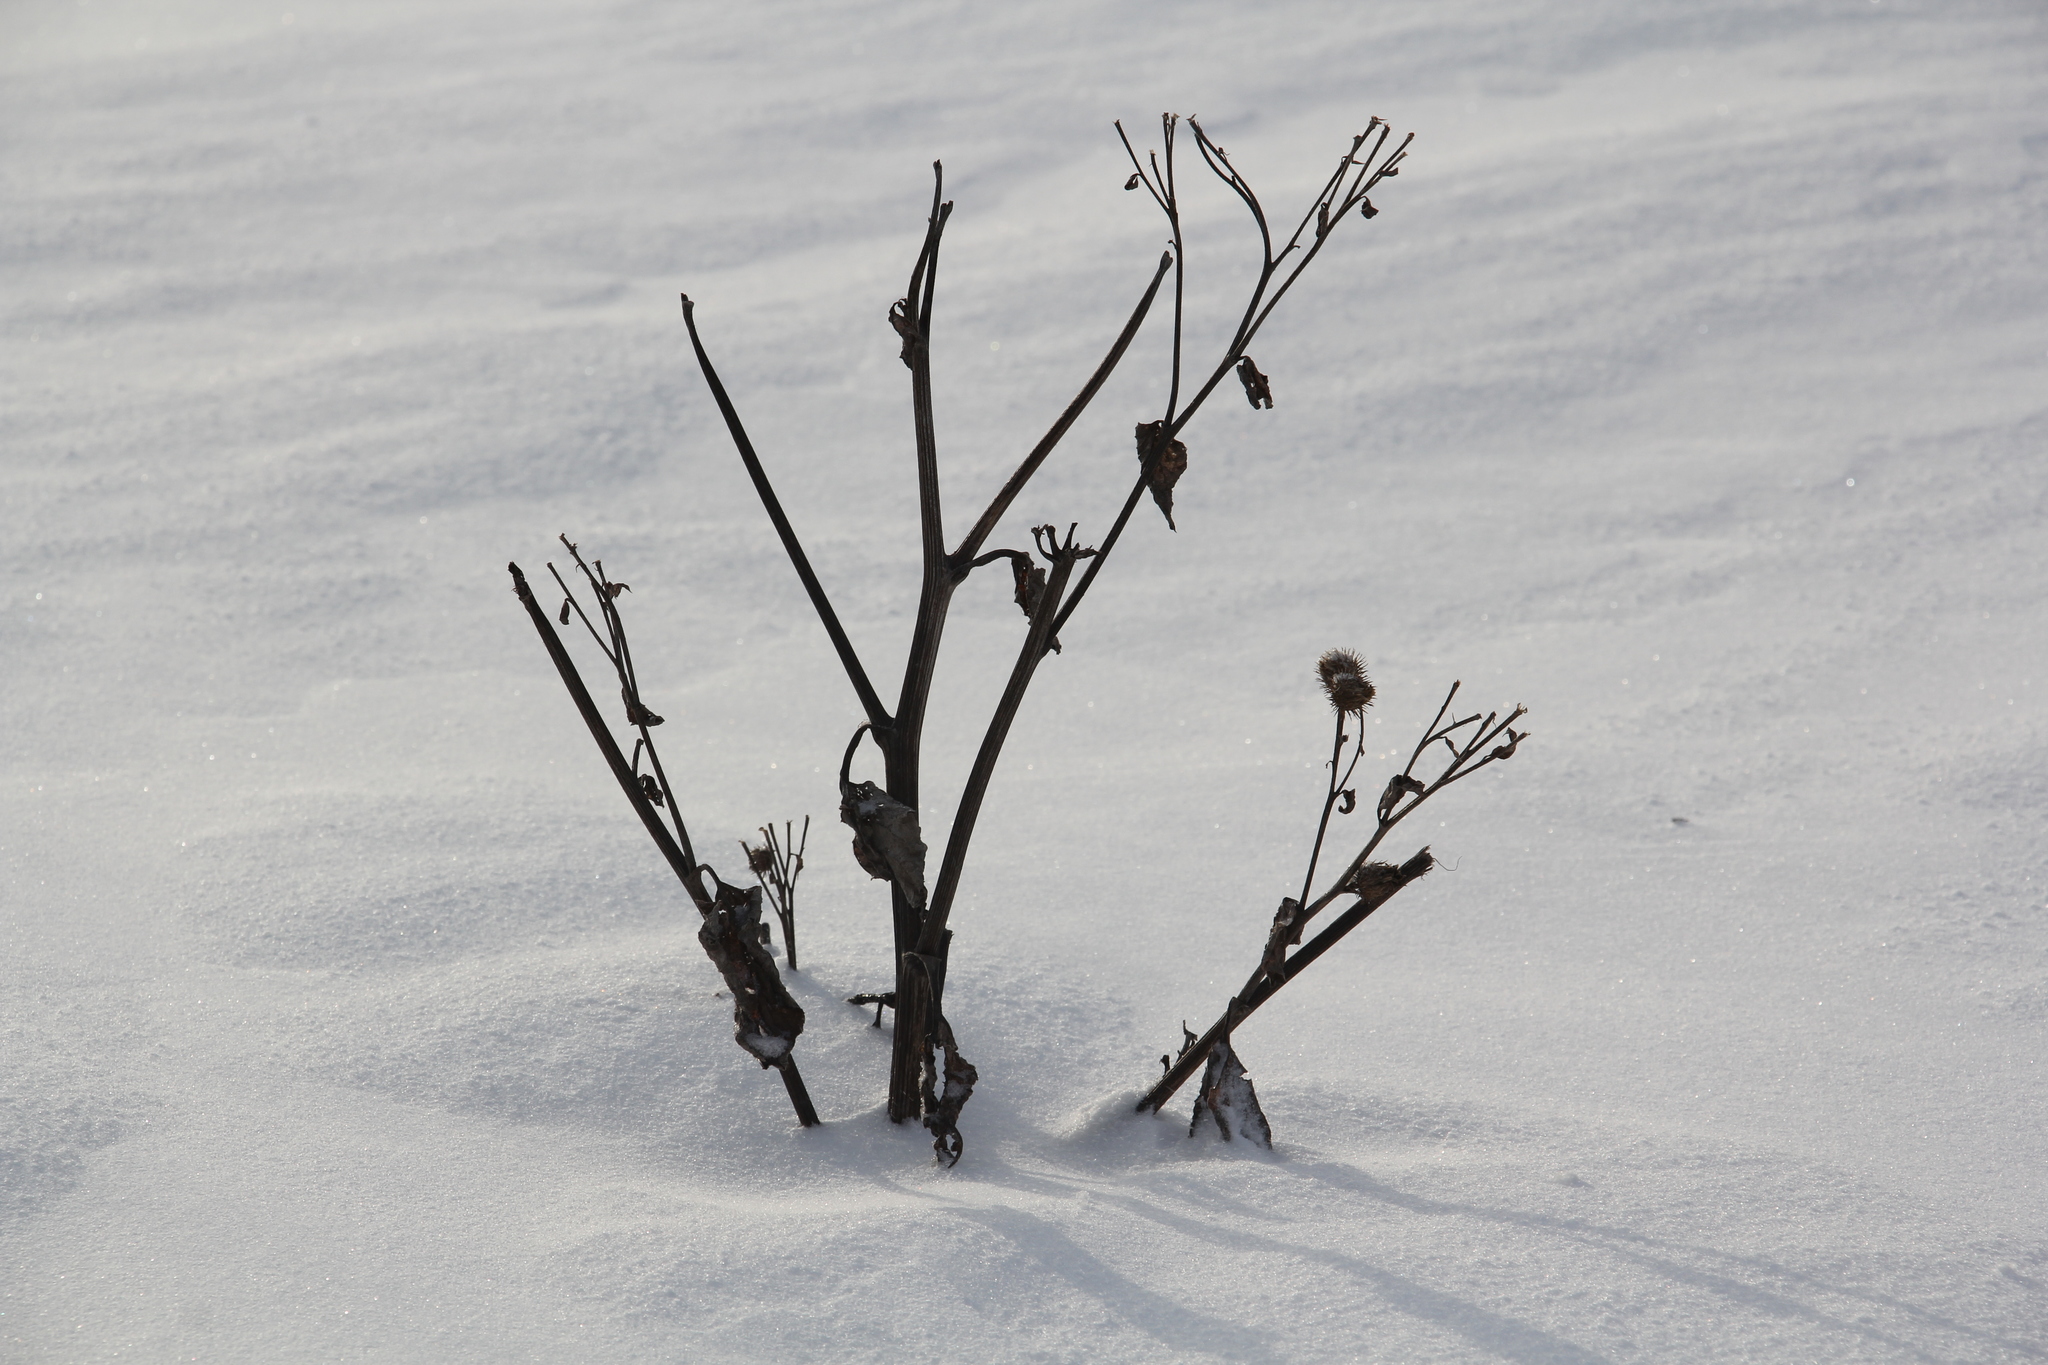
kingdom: Plantae
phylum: Tracheophyta
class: Magnoliopsida
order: Asterales
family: Asteraceae
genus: Arctium
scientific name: Arctium tomentosum
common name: Woolly burdock
